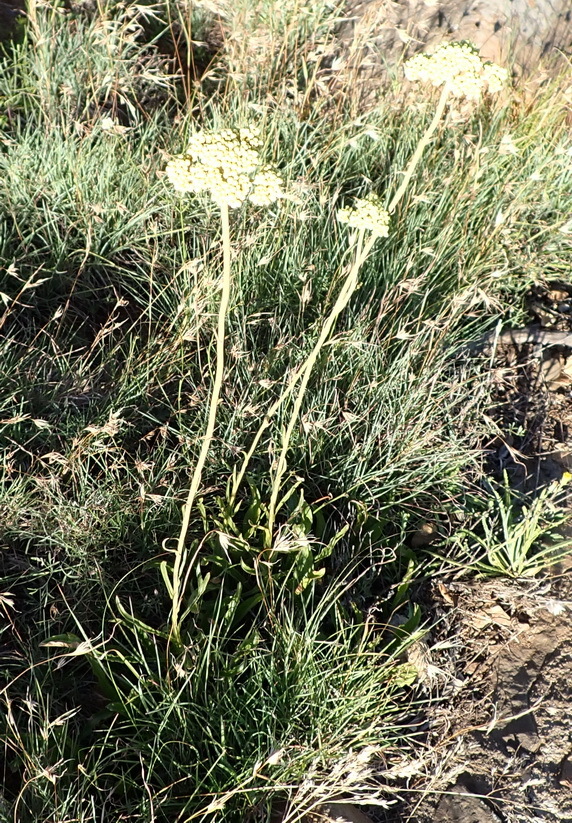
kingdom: Plantae
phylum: Tracheophyta
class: Magnoliopsida
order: Asterales
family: Asteraceae
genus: Helichrysum
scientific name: Helichrysum nudifolium
